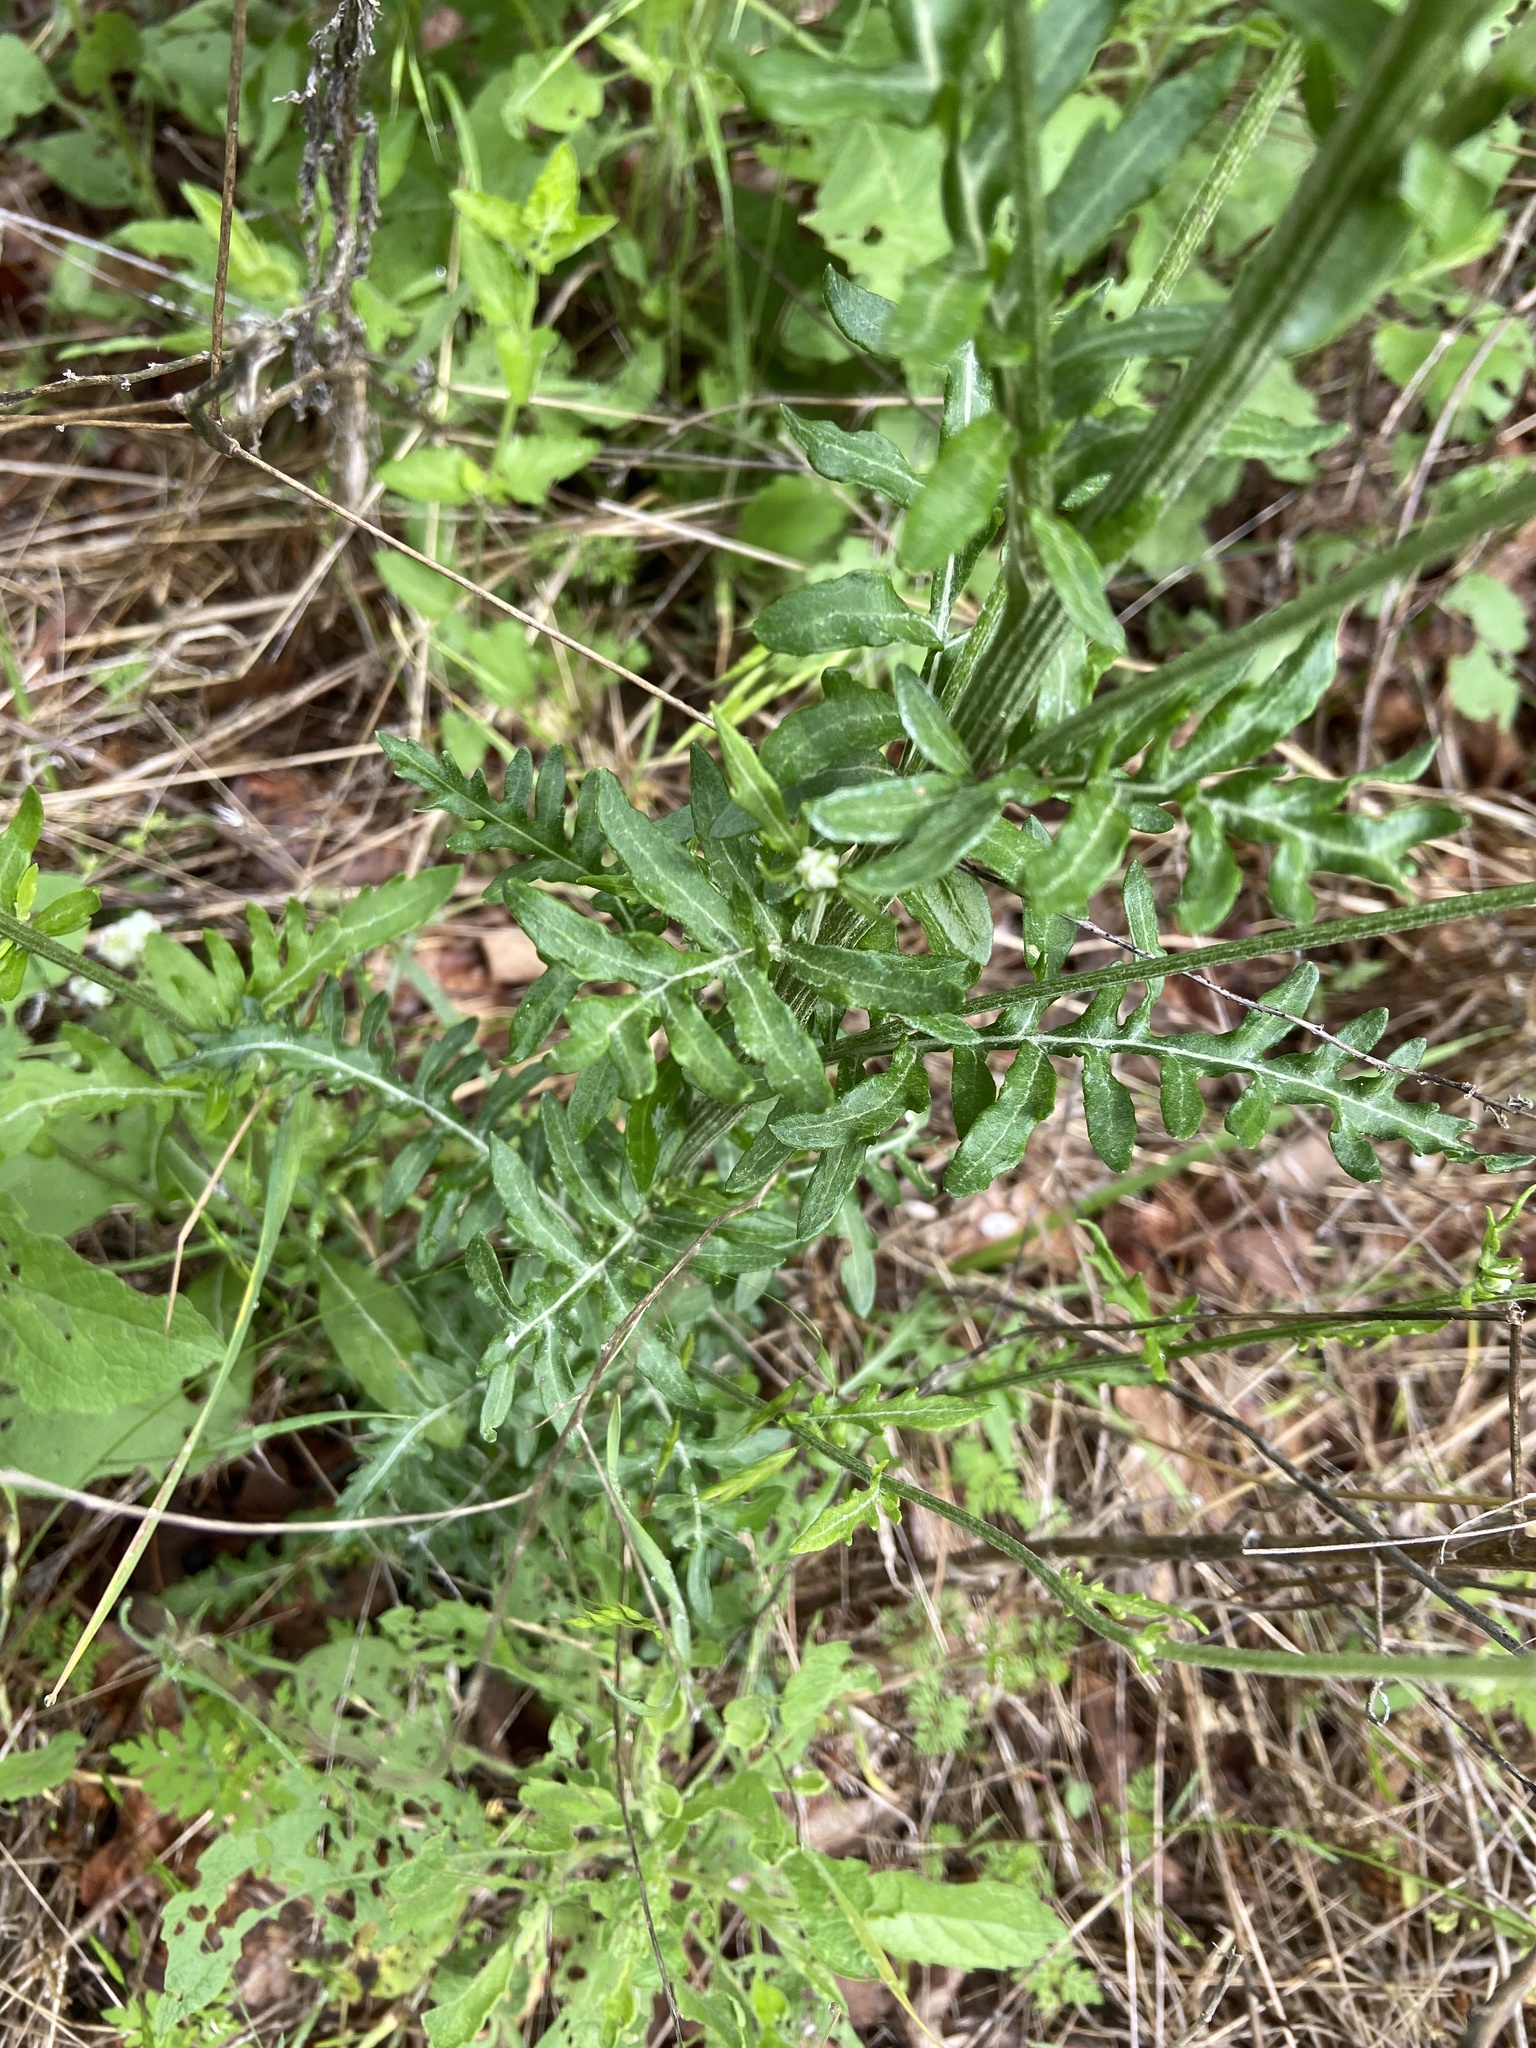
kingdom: Plantae
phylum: Tracheophyta
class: Magnoliopsida
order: Asterales
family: Asteraceae
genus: Hymenopappus
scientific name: Hymenopappus artemisiifolius
